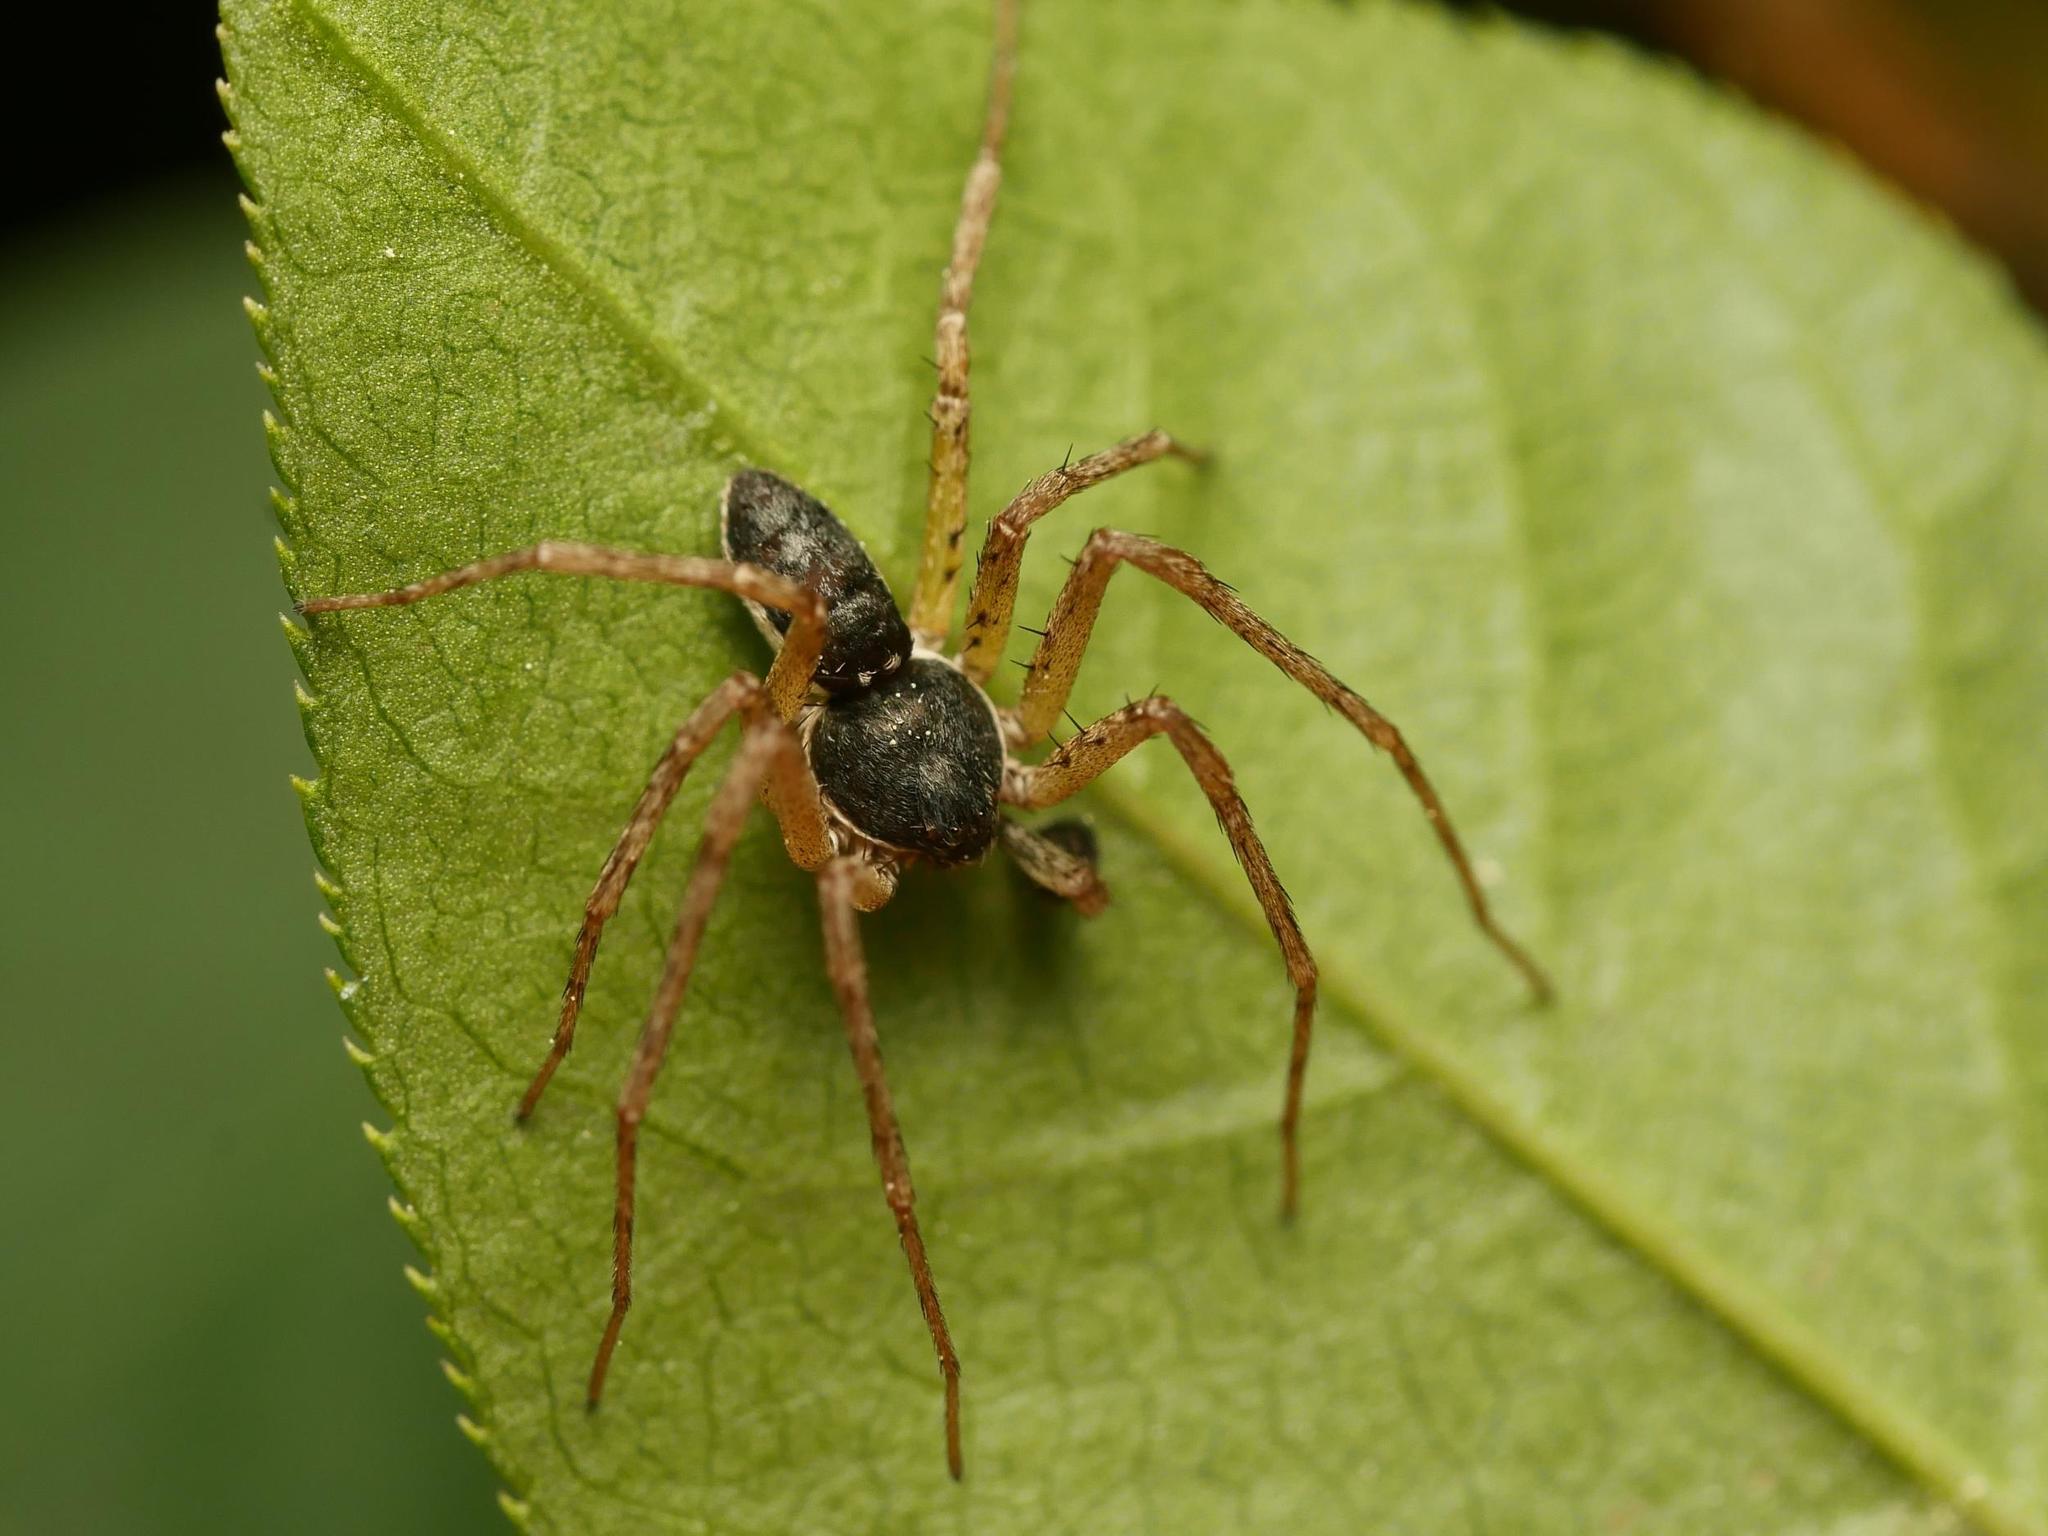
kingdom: Animalia
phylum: Arthropoda
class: Arachnida
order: Araneae
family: Philodromidae
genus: Philodromus
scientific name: Philodromus dispar
